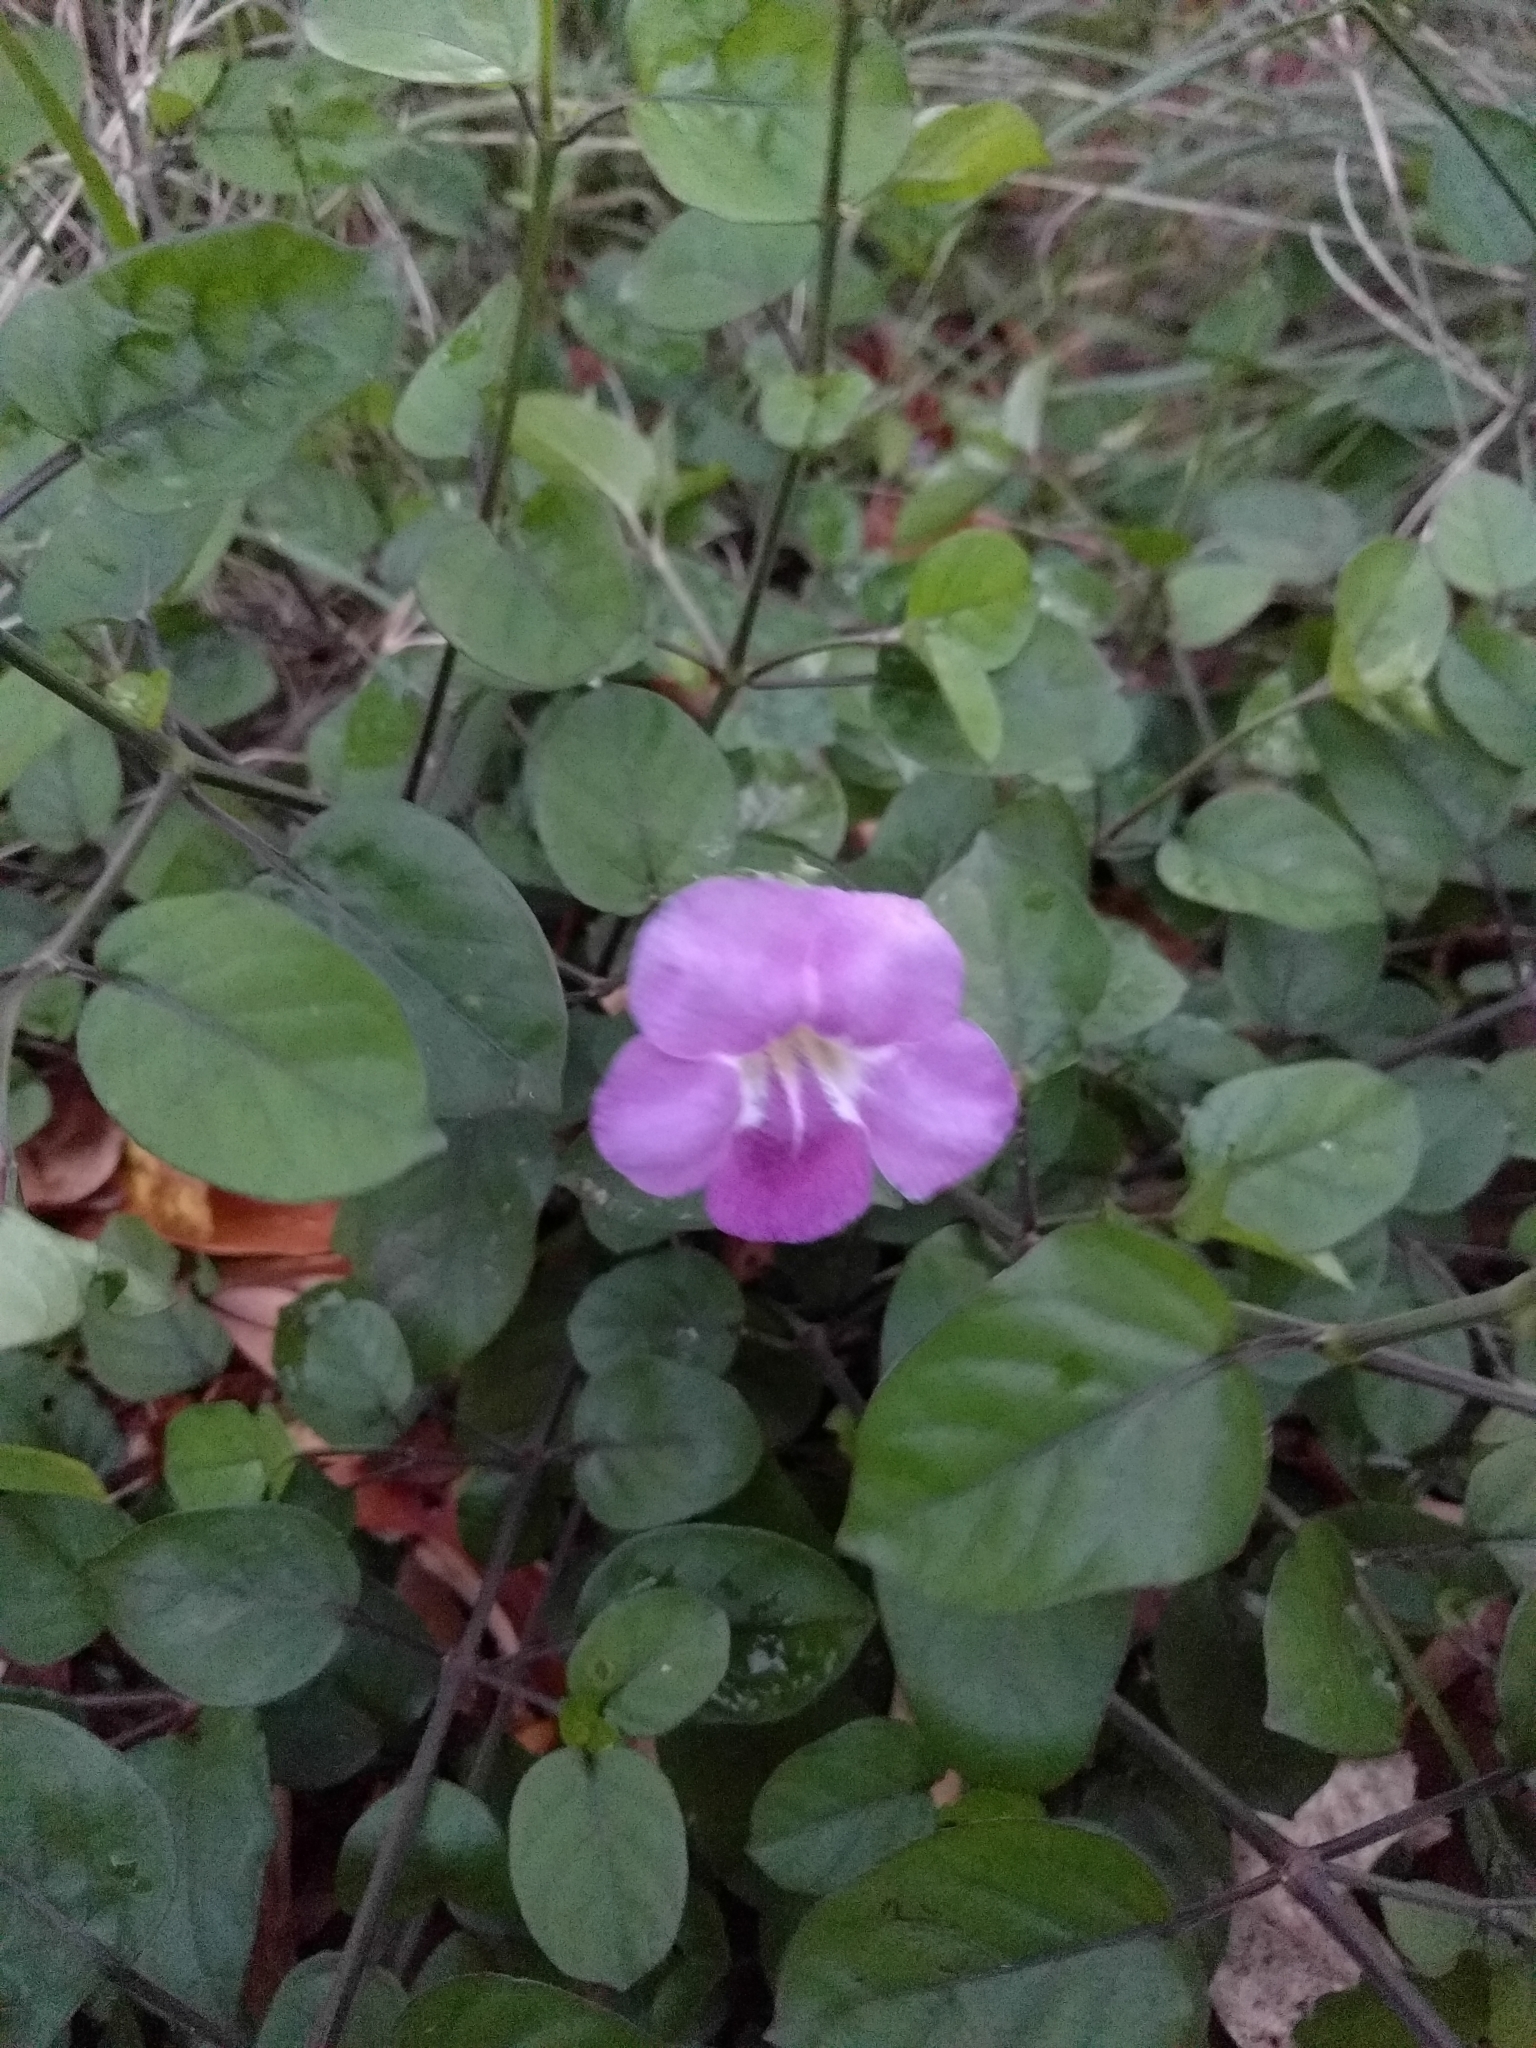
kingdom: Plantae
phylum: Tracheophyta
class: Magnoliopsida
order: Lamiales
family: Acanthaceae
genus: Asystasia
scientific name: Asystasia gangetica
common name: Chinese violet
